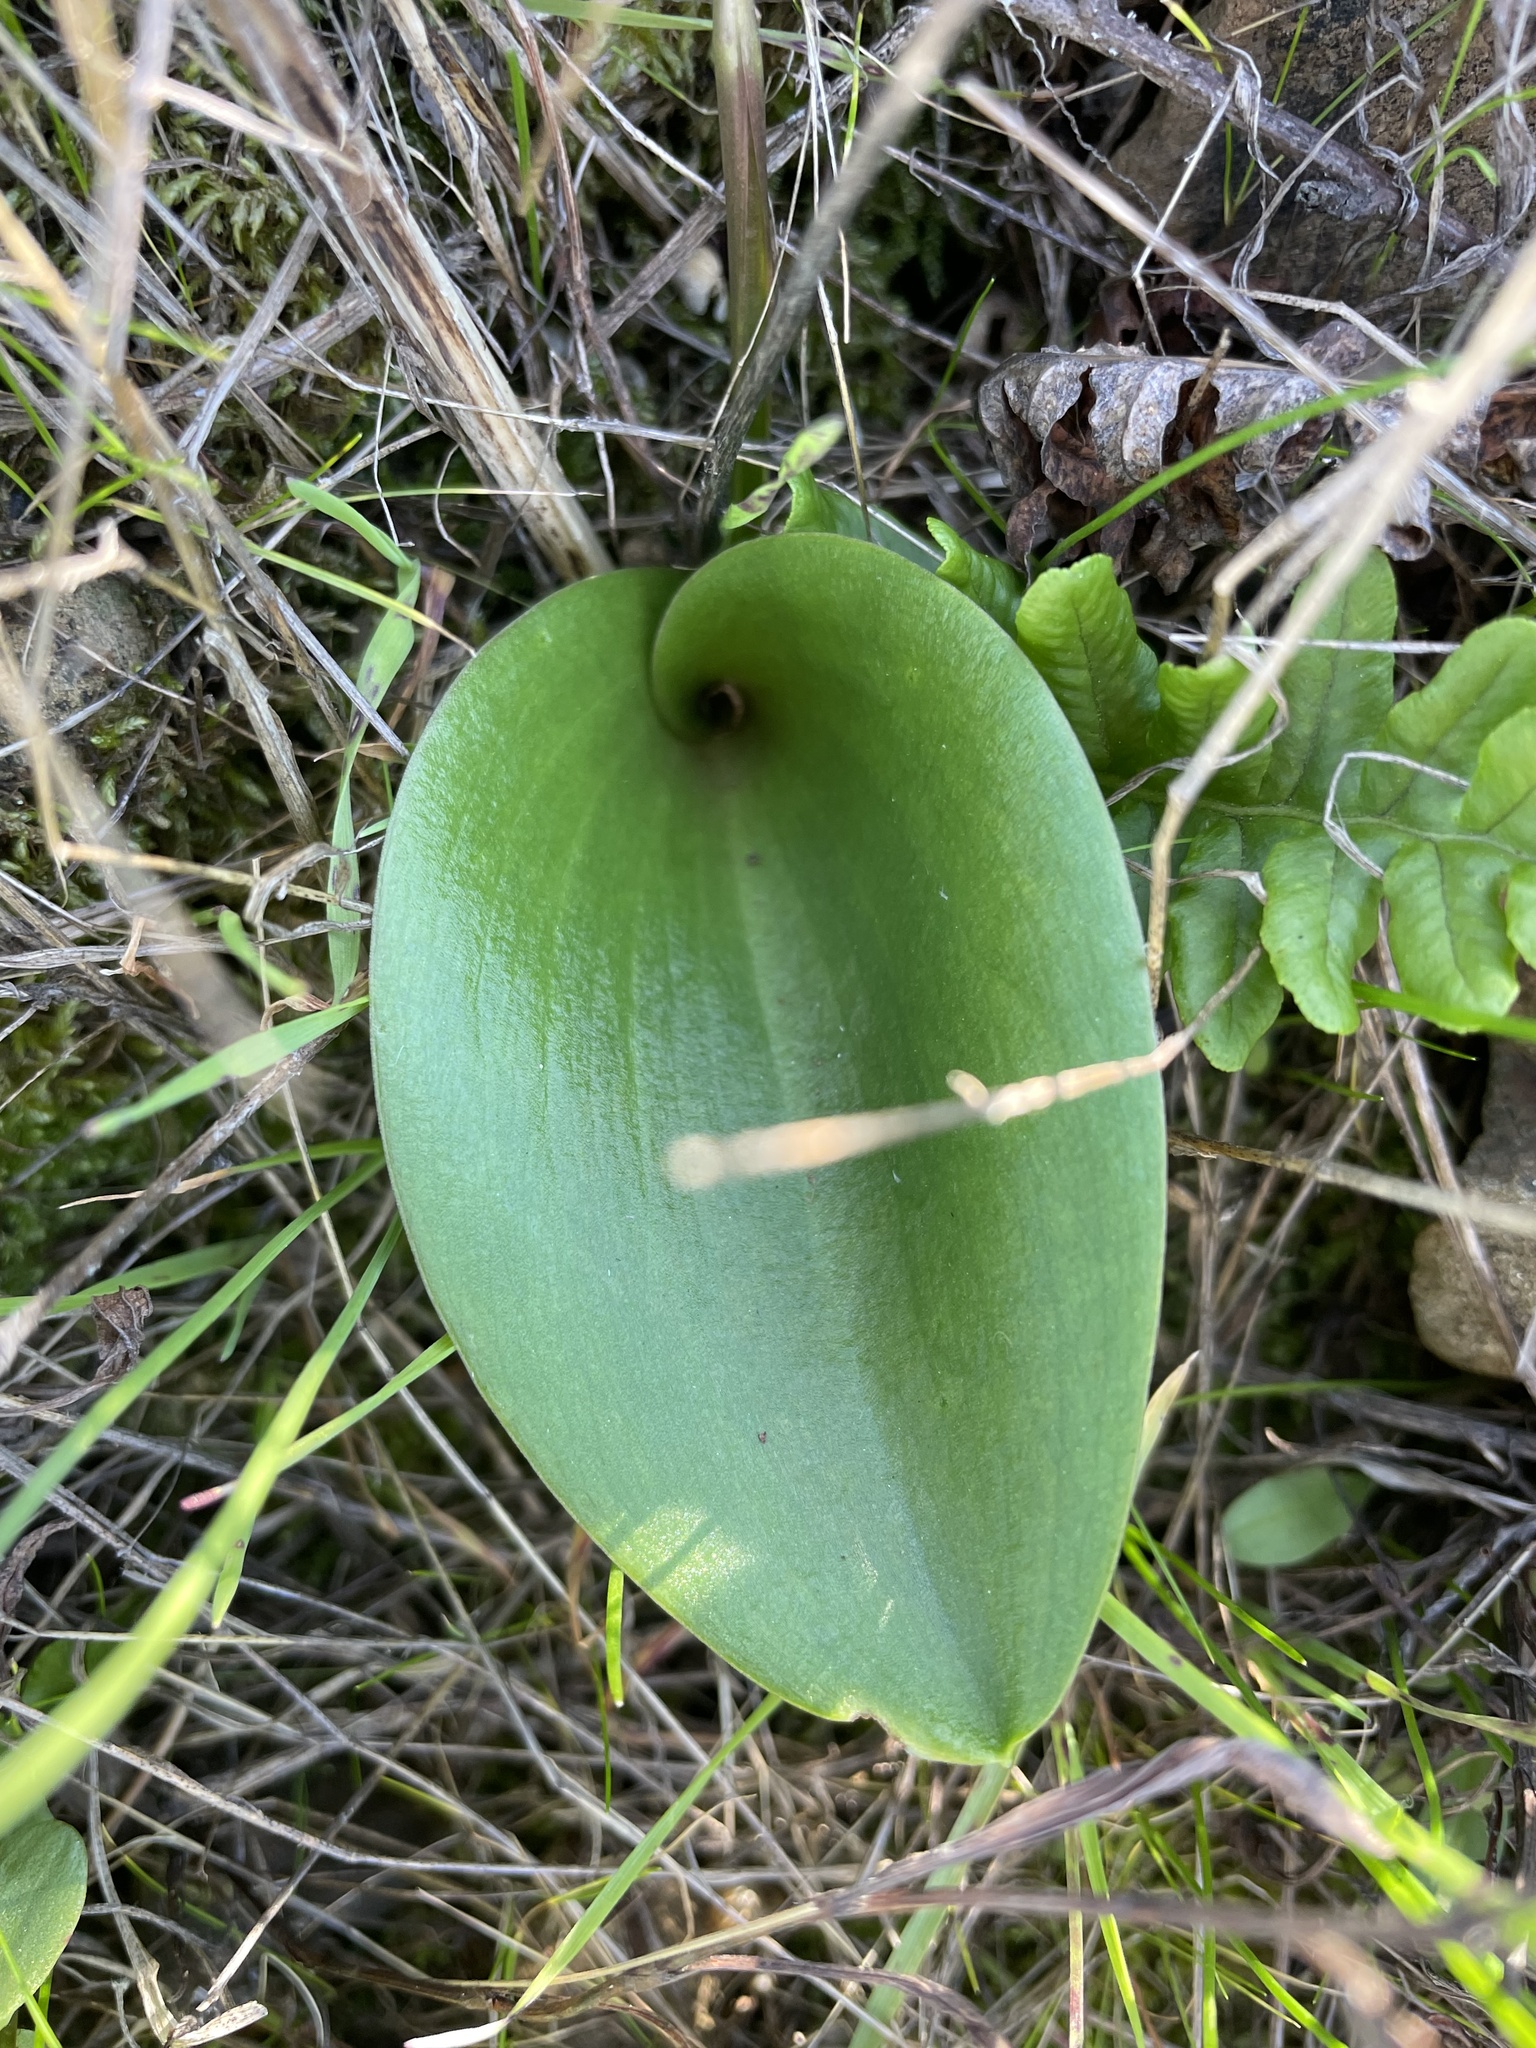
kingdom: Plantae
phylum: Tracheophyta
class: Liliopsida
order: Liliales
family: Liliaceae
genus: Fritillaria
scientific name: Fritillaria affinis
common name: Ojai fritillary
